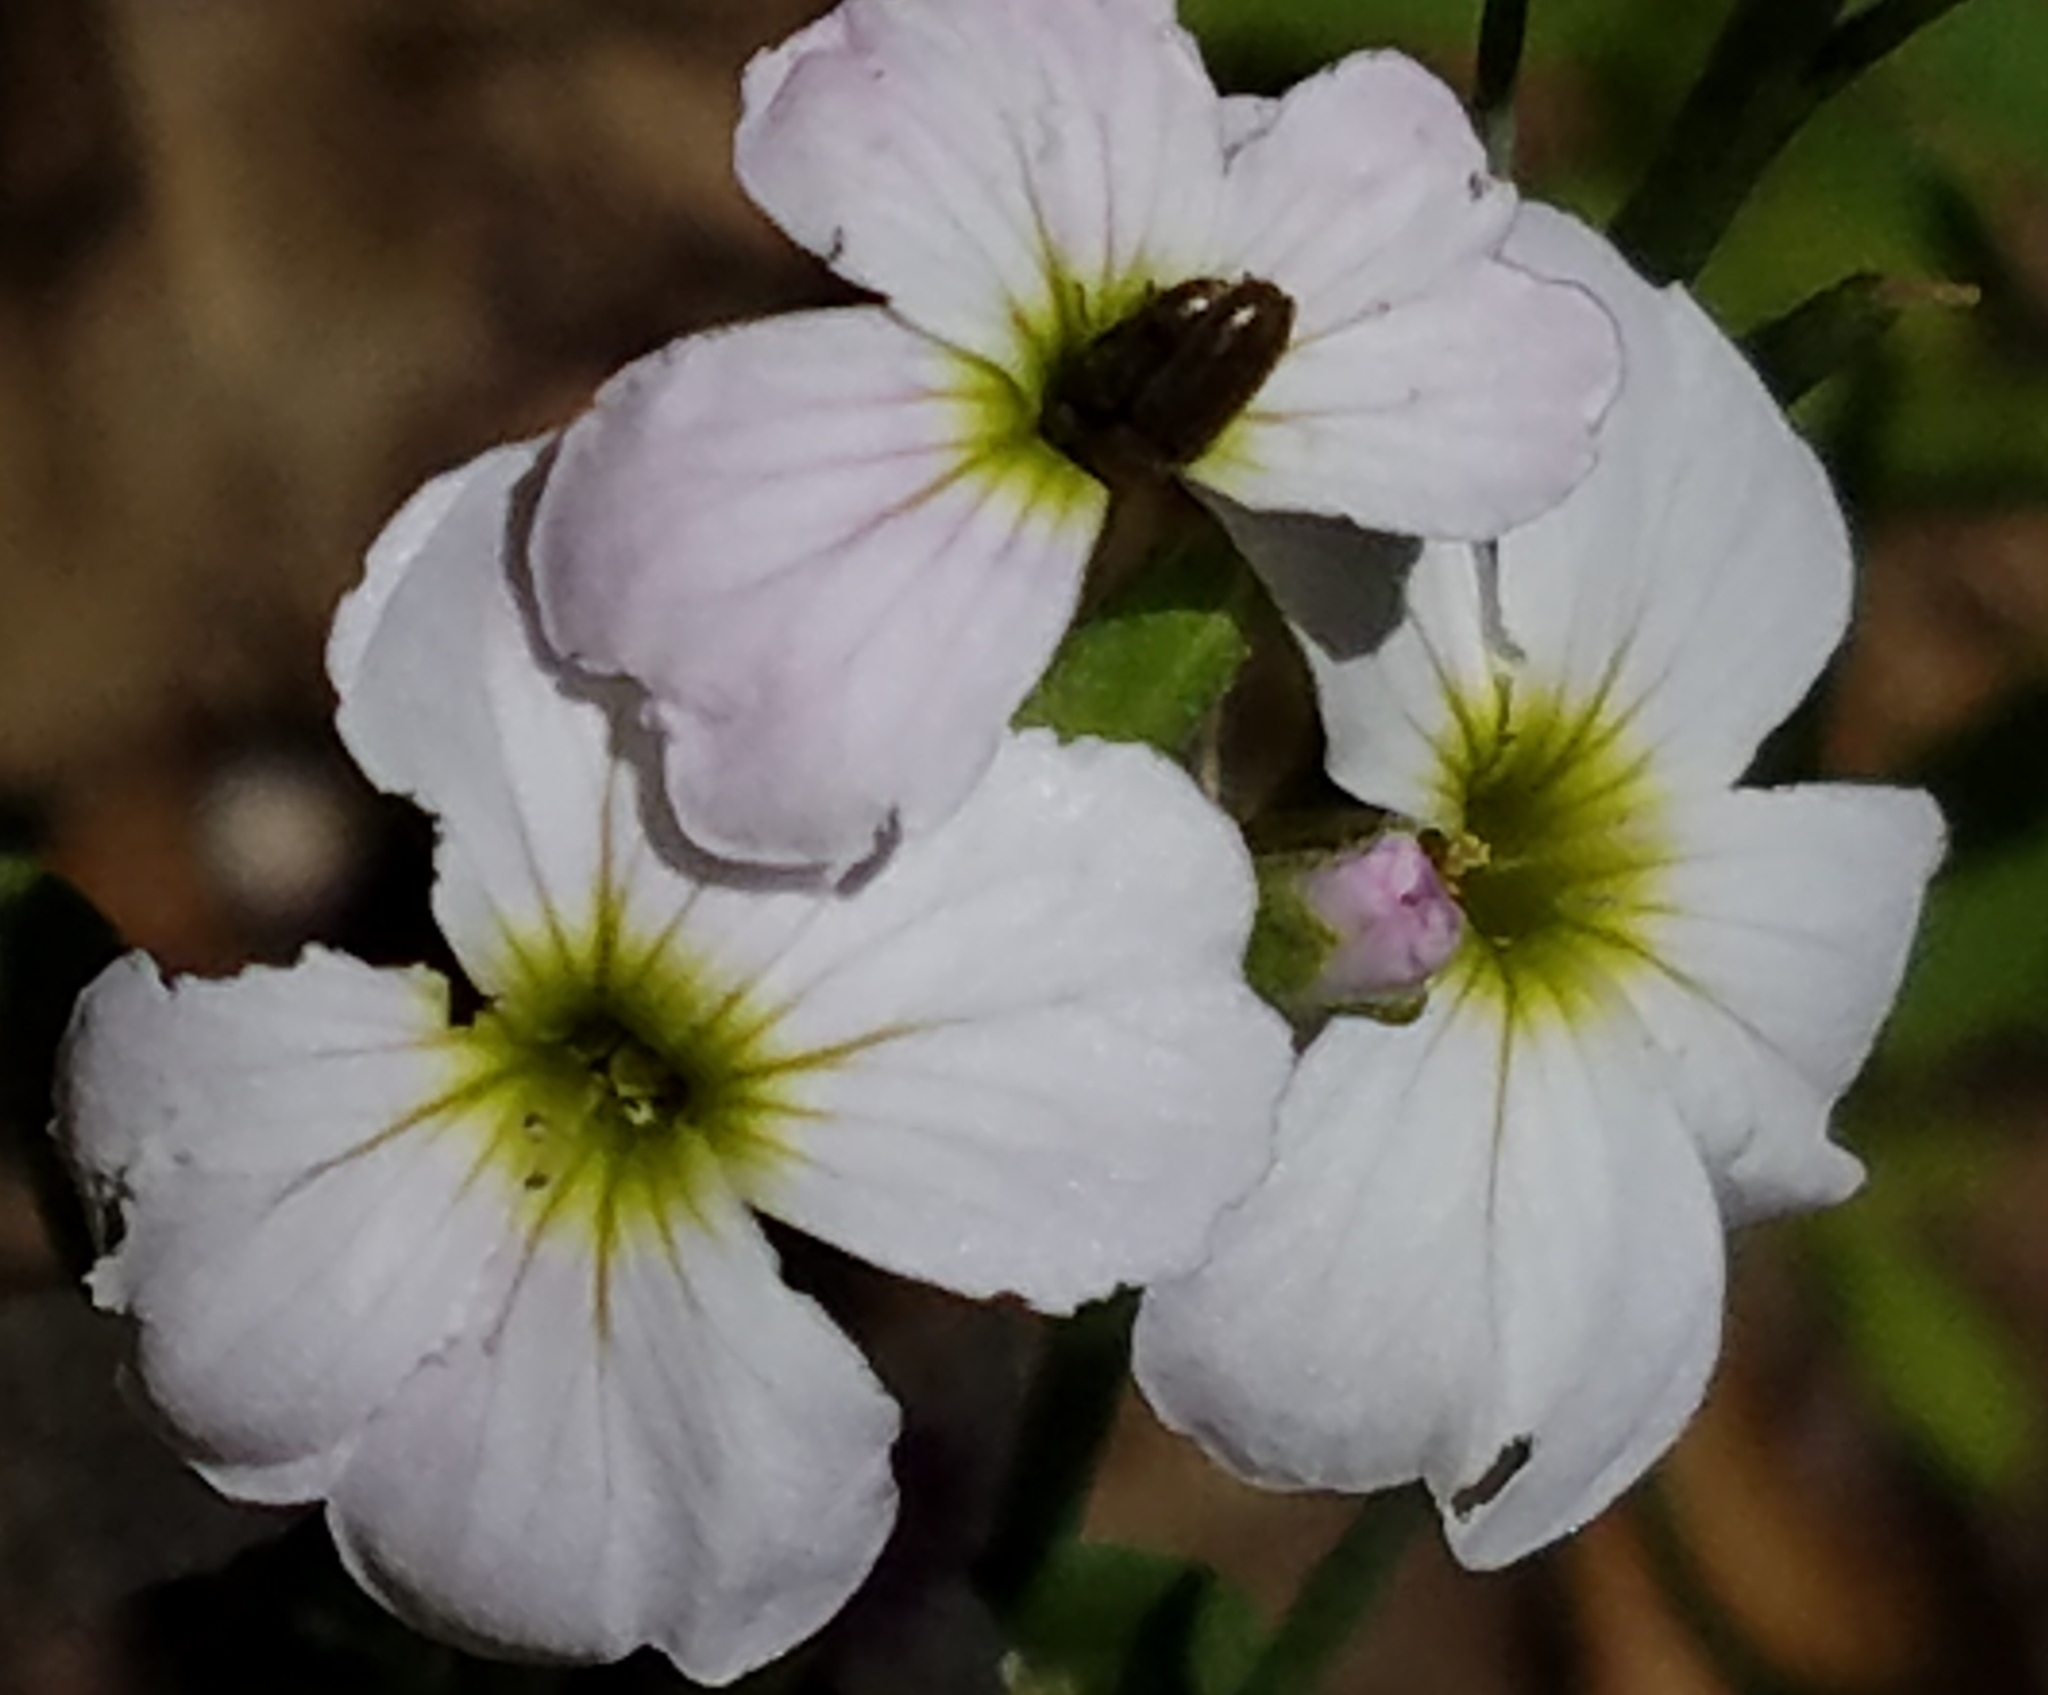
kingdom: Plantae
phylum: Tracheophyta
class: Magnoliopsida
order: Brassicales
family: Brassicaceae
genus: Cardamine
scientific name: Cardamine californica
